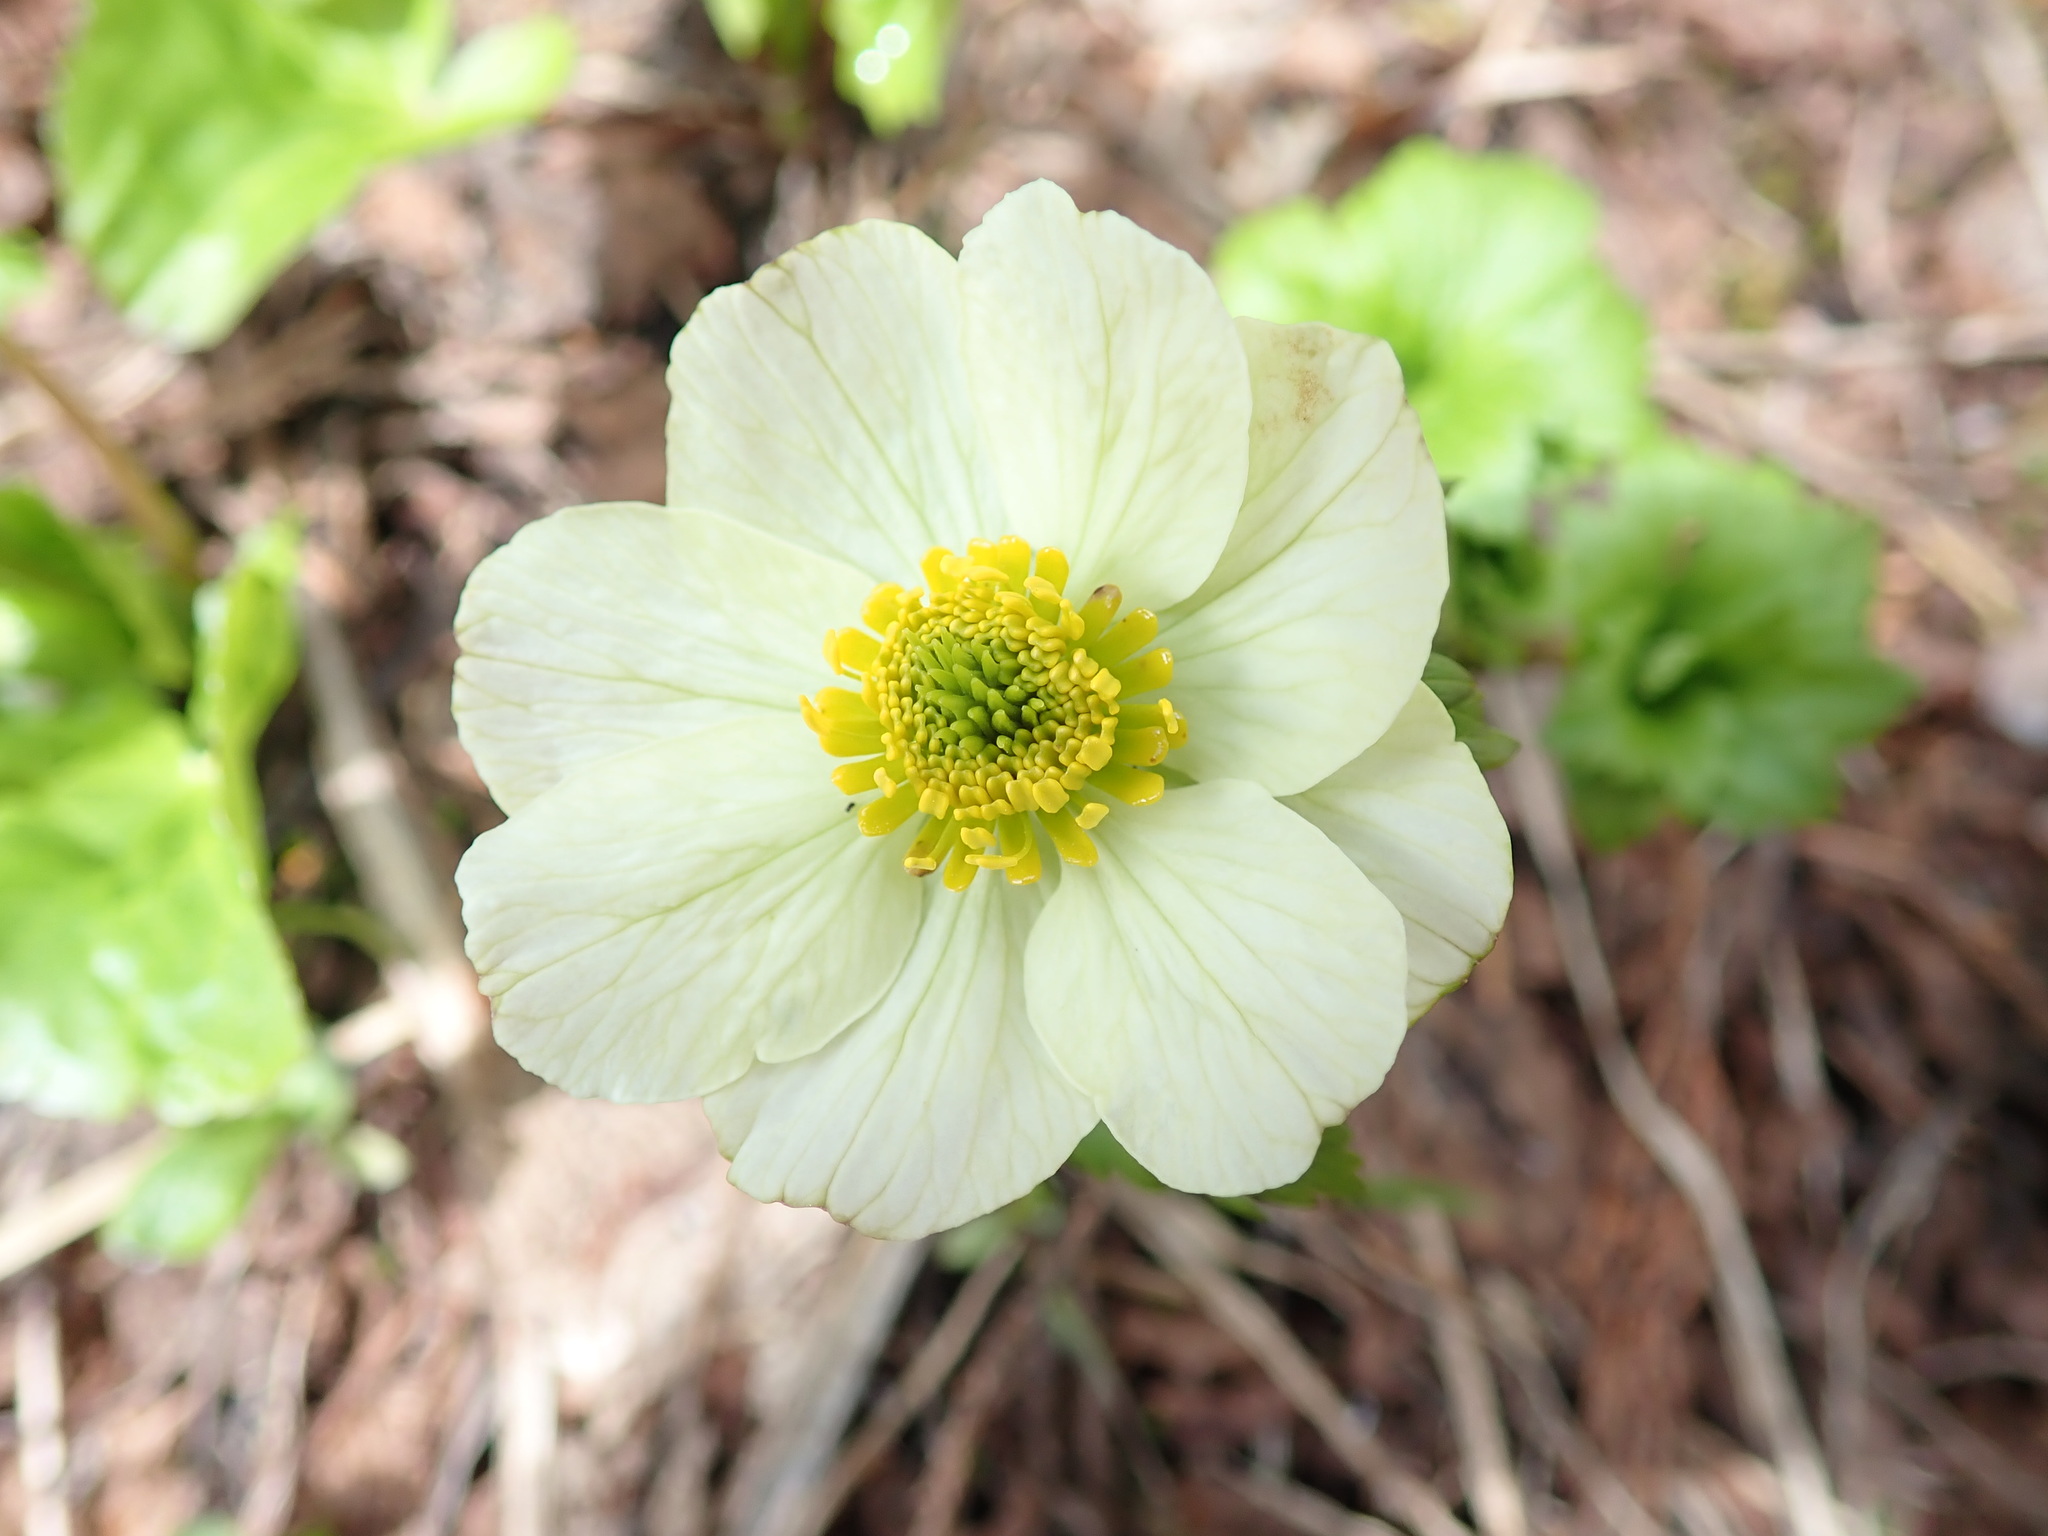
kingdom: Plantae
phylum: Tracheophyta
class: Magnoliopsida
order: Ranunculales
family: Ranunculaceae
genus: Trollius
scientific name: Trollius laxus
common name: American globeflower
